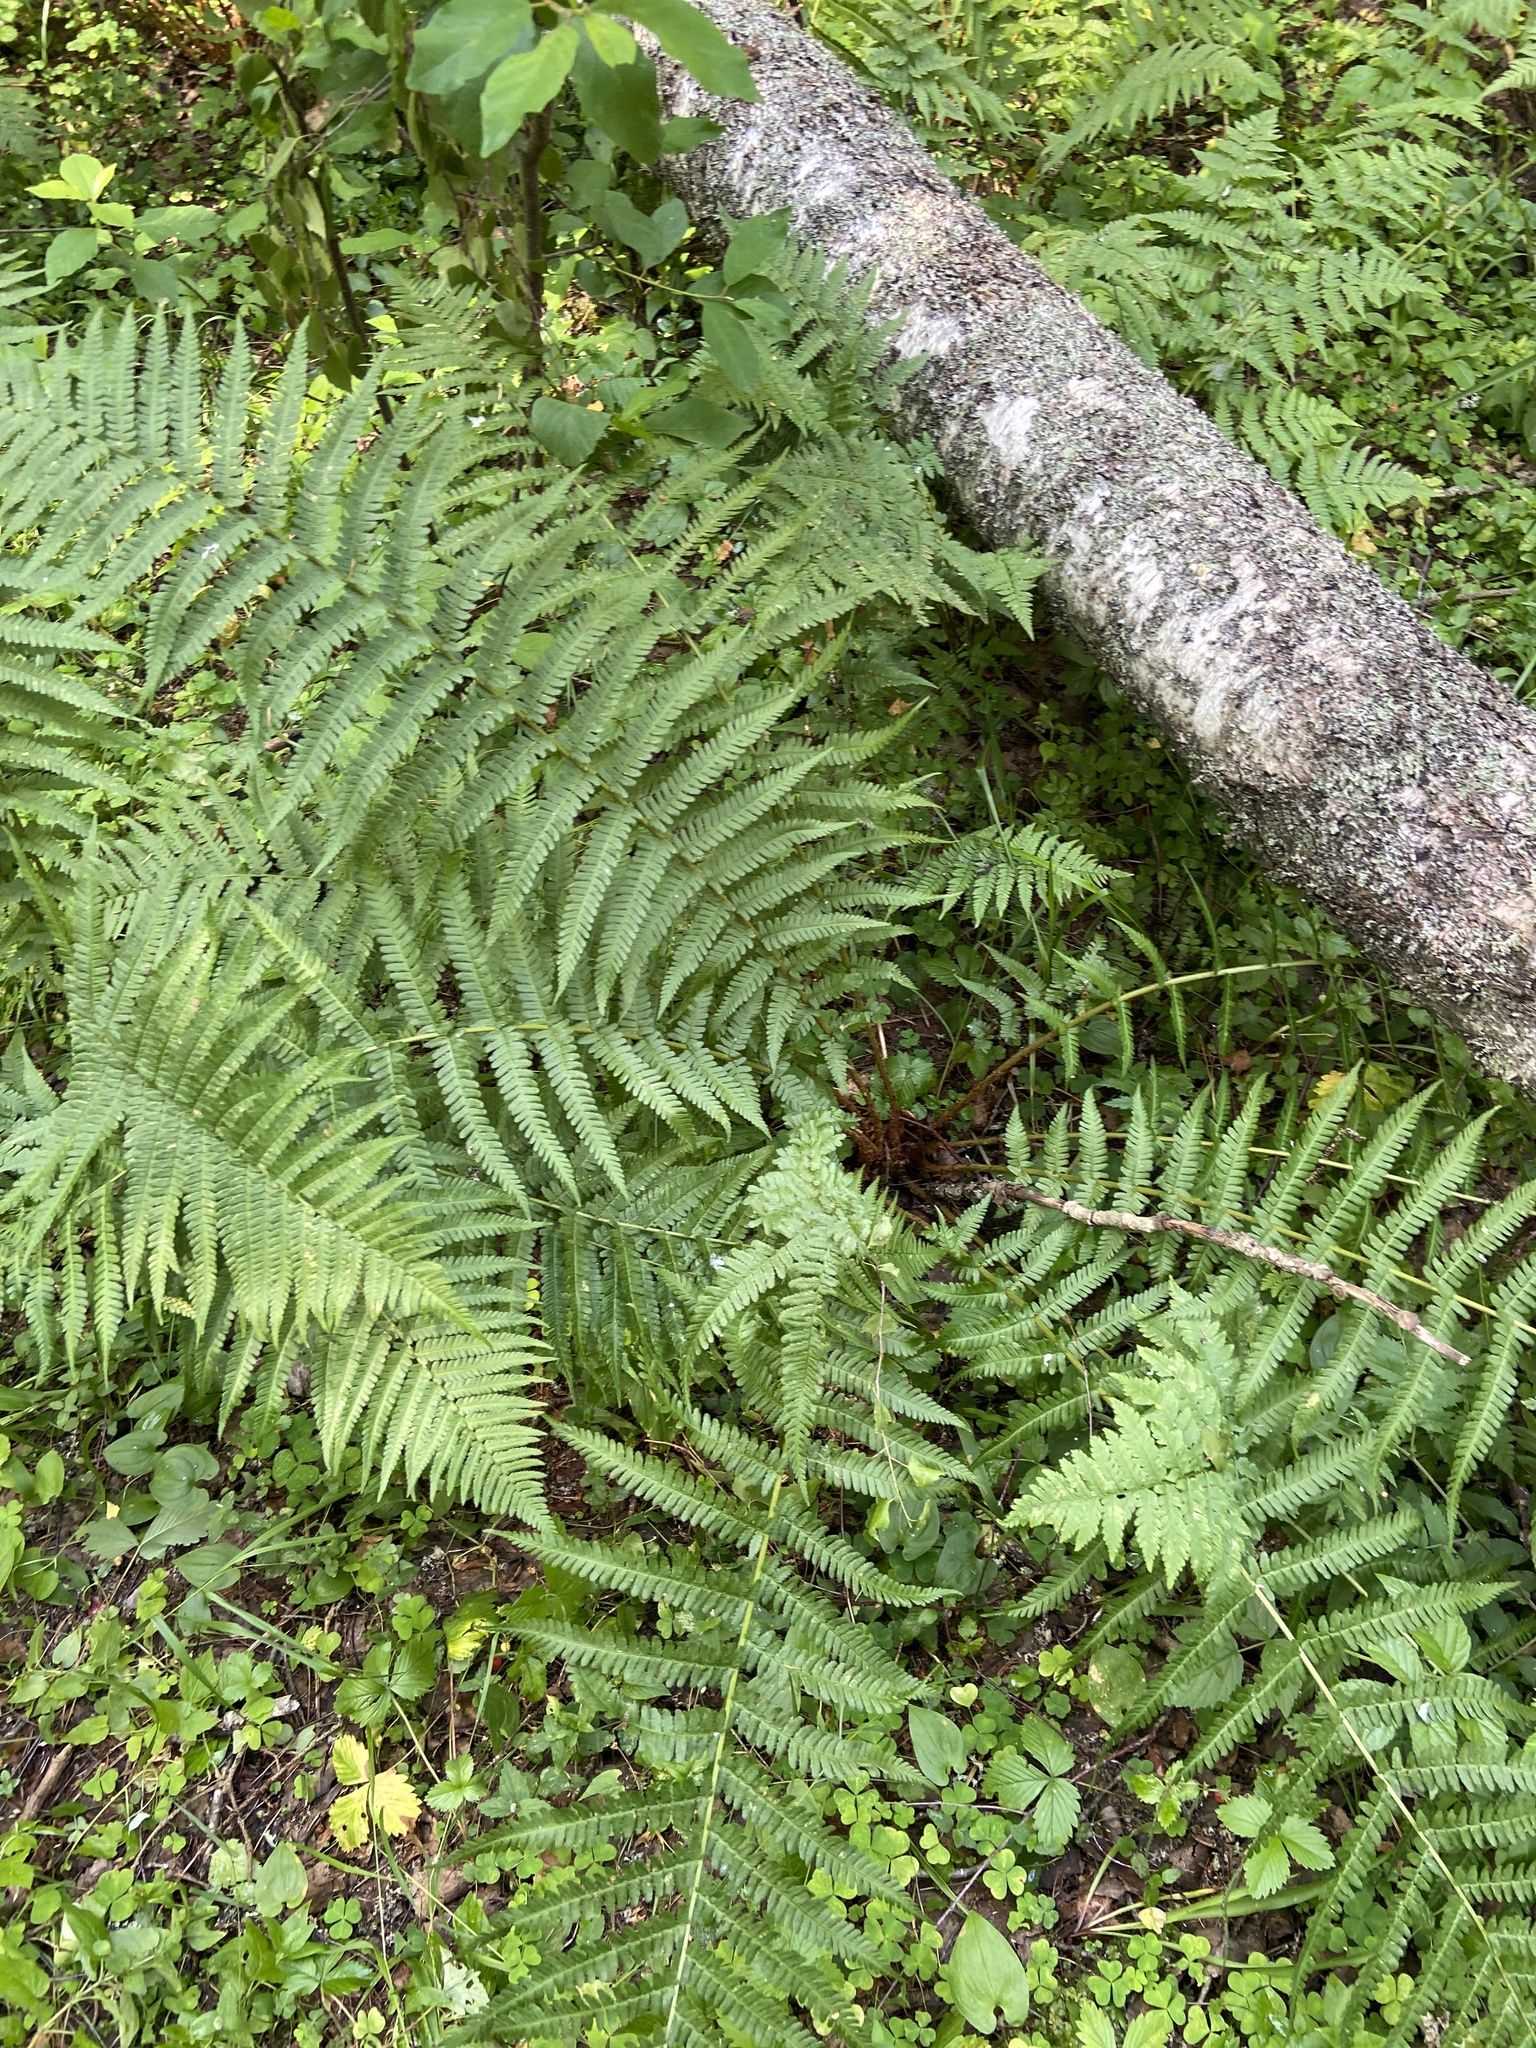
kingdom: Plantae
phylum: Tracheophyta
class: Polypodiopsida
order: Polypodiales
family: Dryopteridaceae
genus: Dryopteris
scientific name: Dryopteris filix-mas
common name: Male fern
